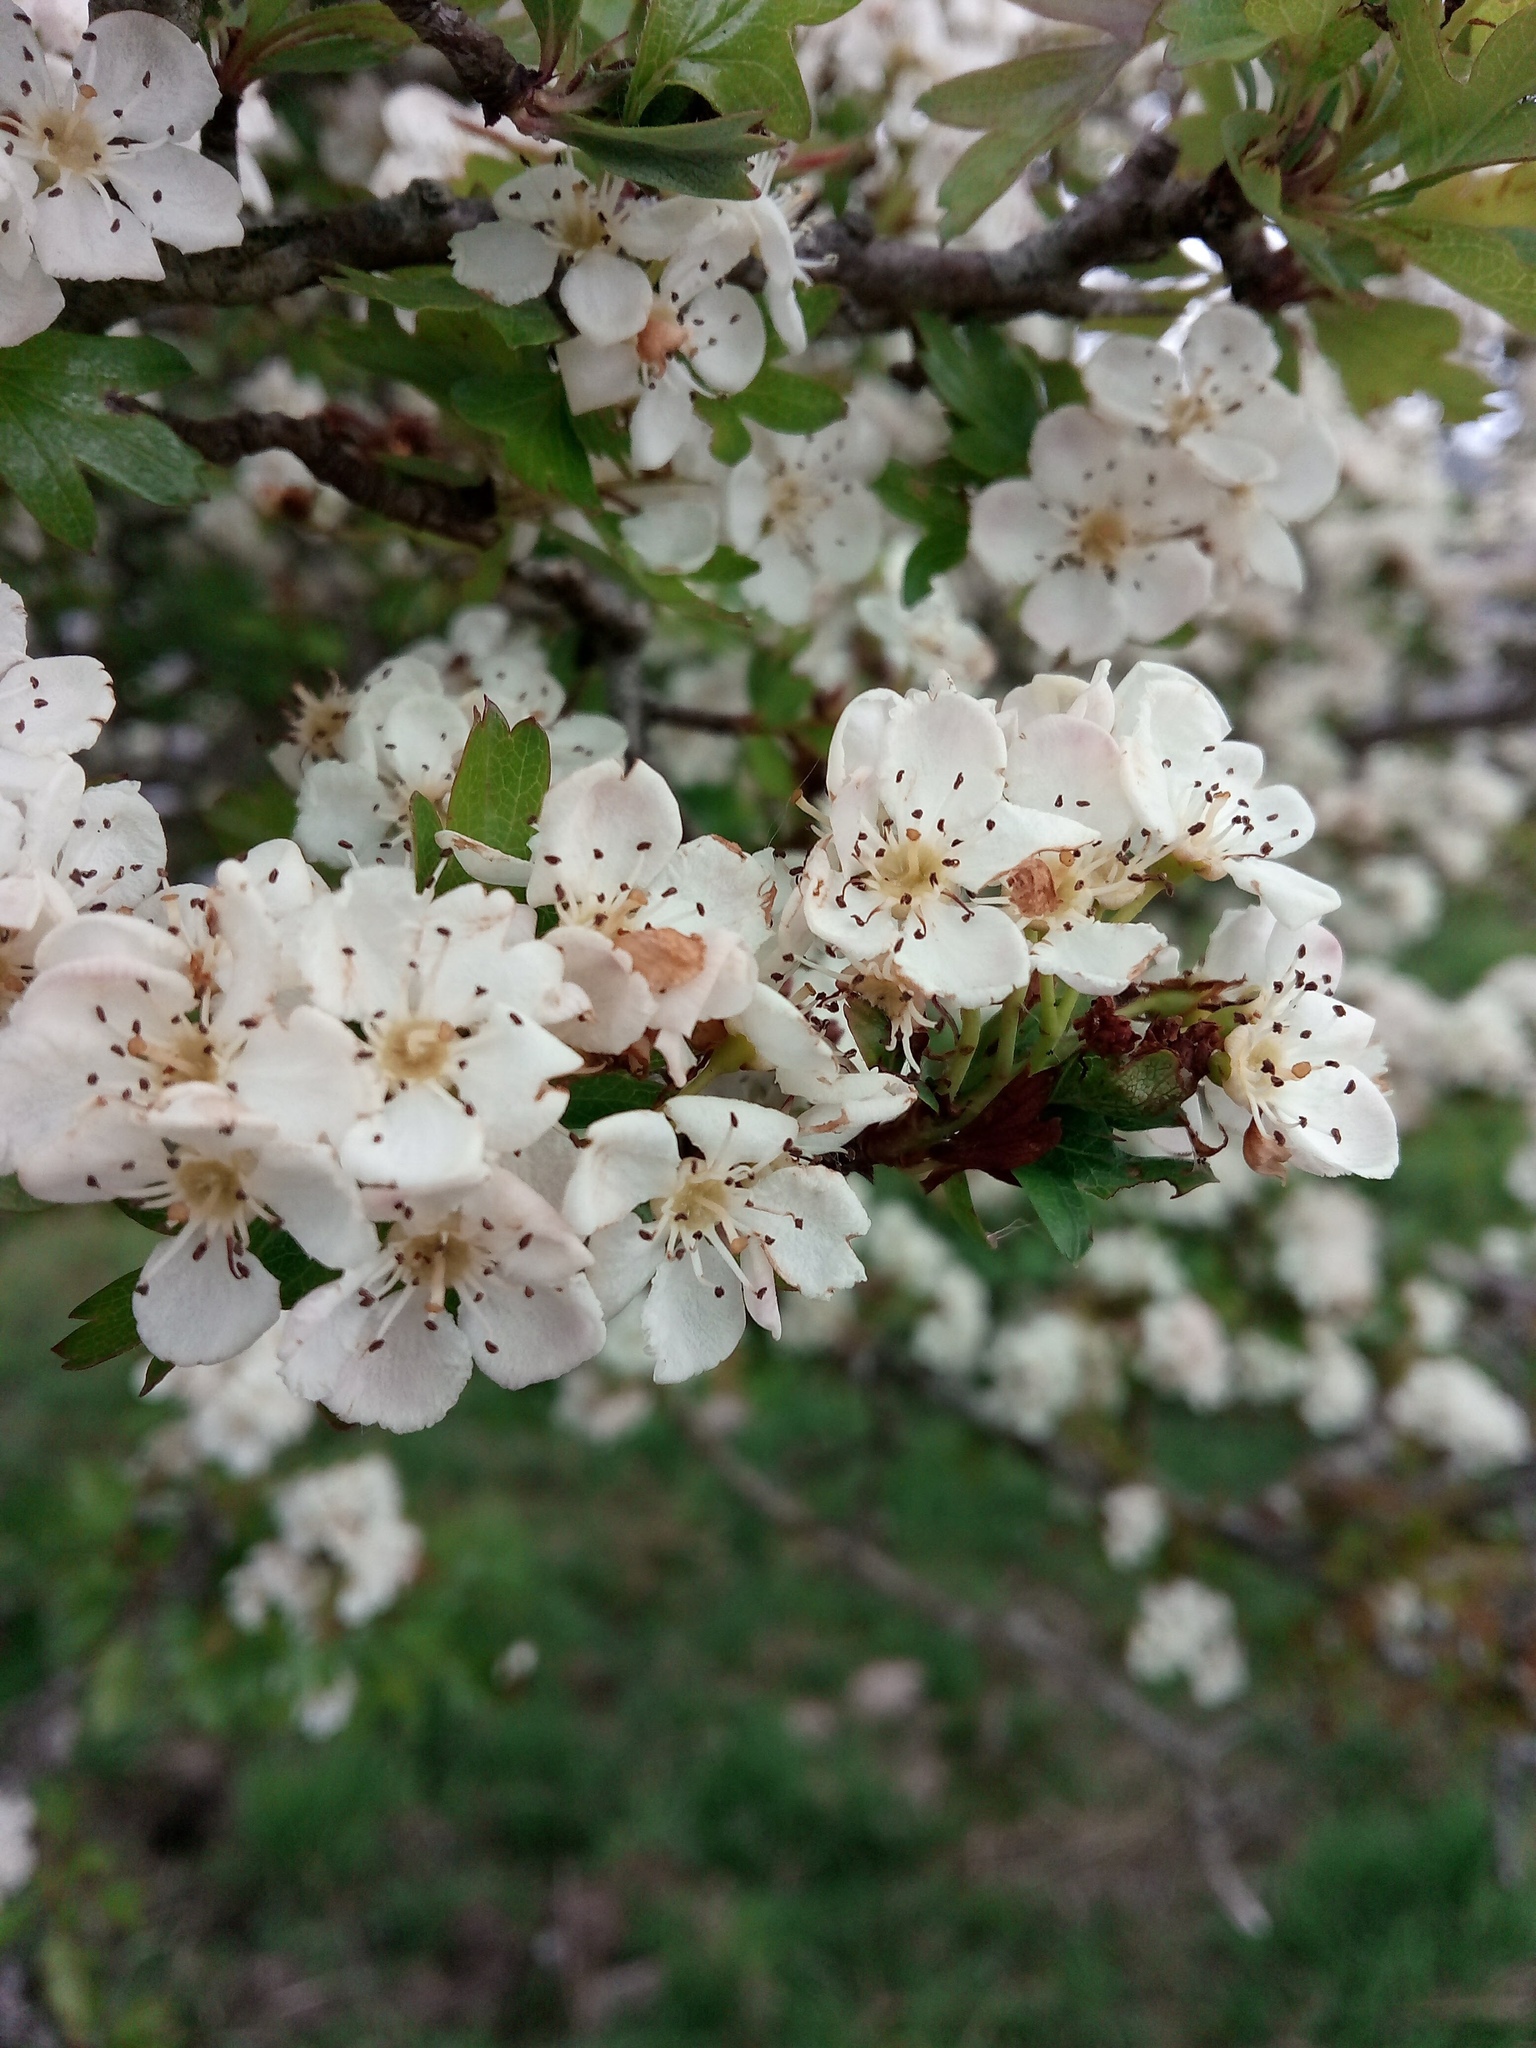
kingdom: Plantae
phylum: Tracheophyta
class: Magnoliopsida
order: Rosales
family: Rosaceae
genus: Crataegus
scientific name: Crataegus monogyna
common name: Hawthorn
